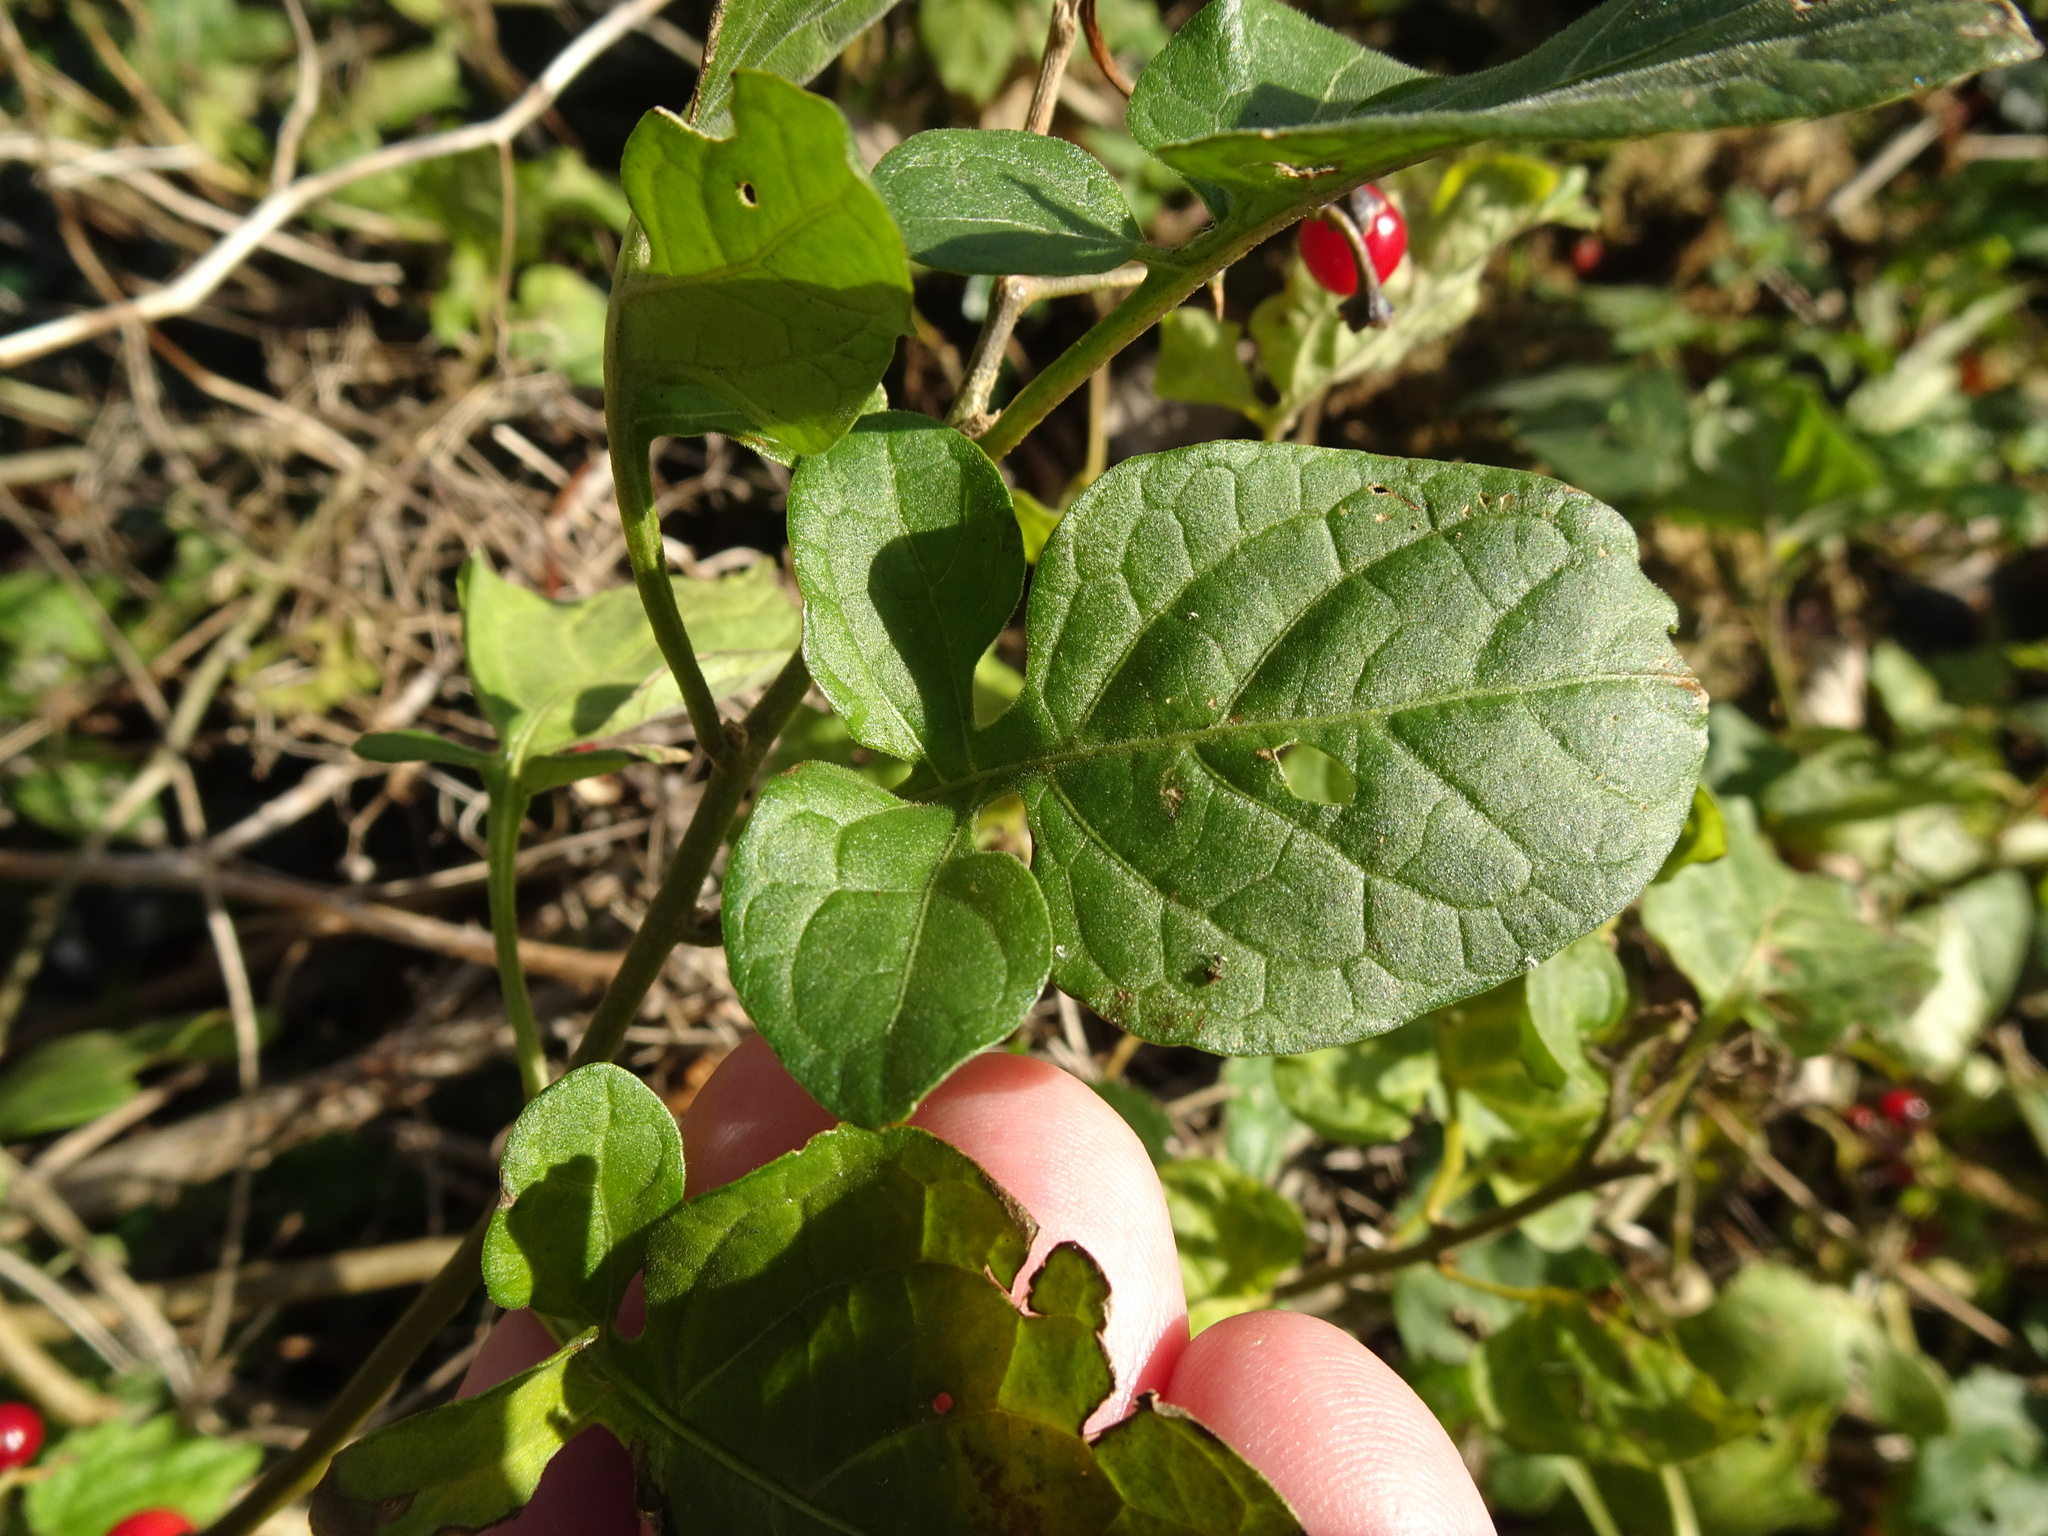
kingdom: Plantae
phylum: Tracheophyta
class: Magnoliopsida
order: Solanales
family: Solanaceae
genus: Solanum
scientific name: Solanum dulcamara
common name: Climbing nightshade
